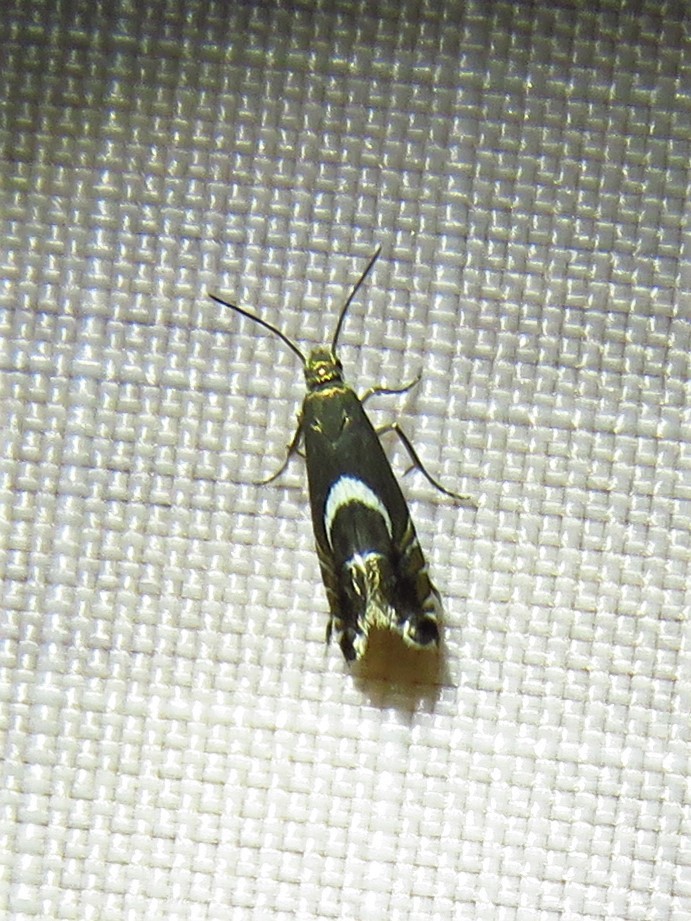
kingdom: Animalia
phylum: Arthropoda
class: Insecta
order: Lepidoptera
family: Glyphipterigidae
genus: Glyphipterix
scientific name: Glyphipterix Diploschizia impigritella
